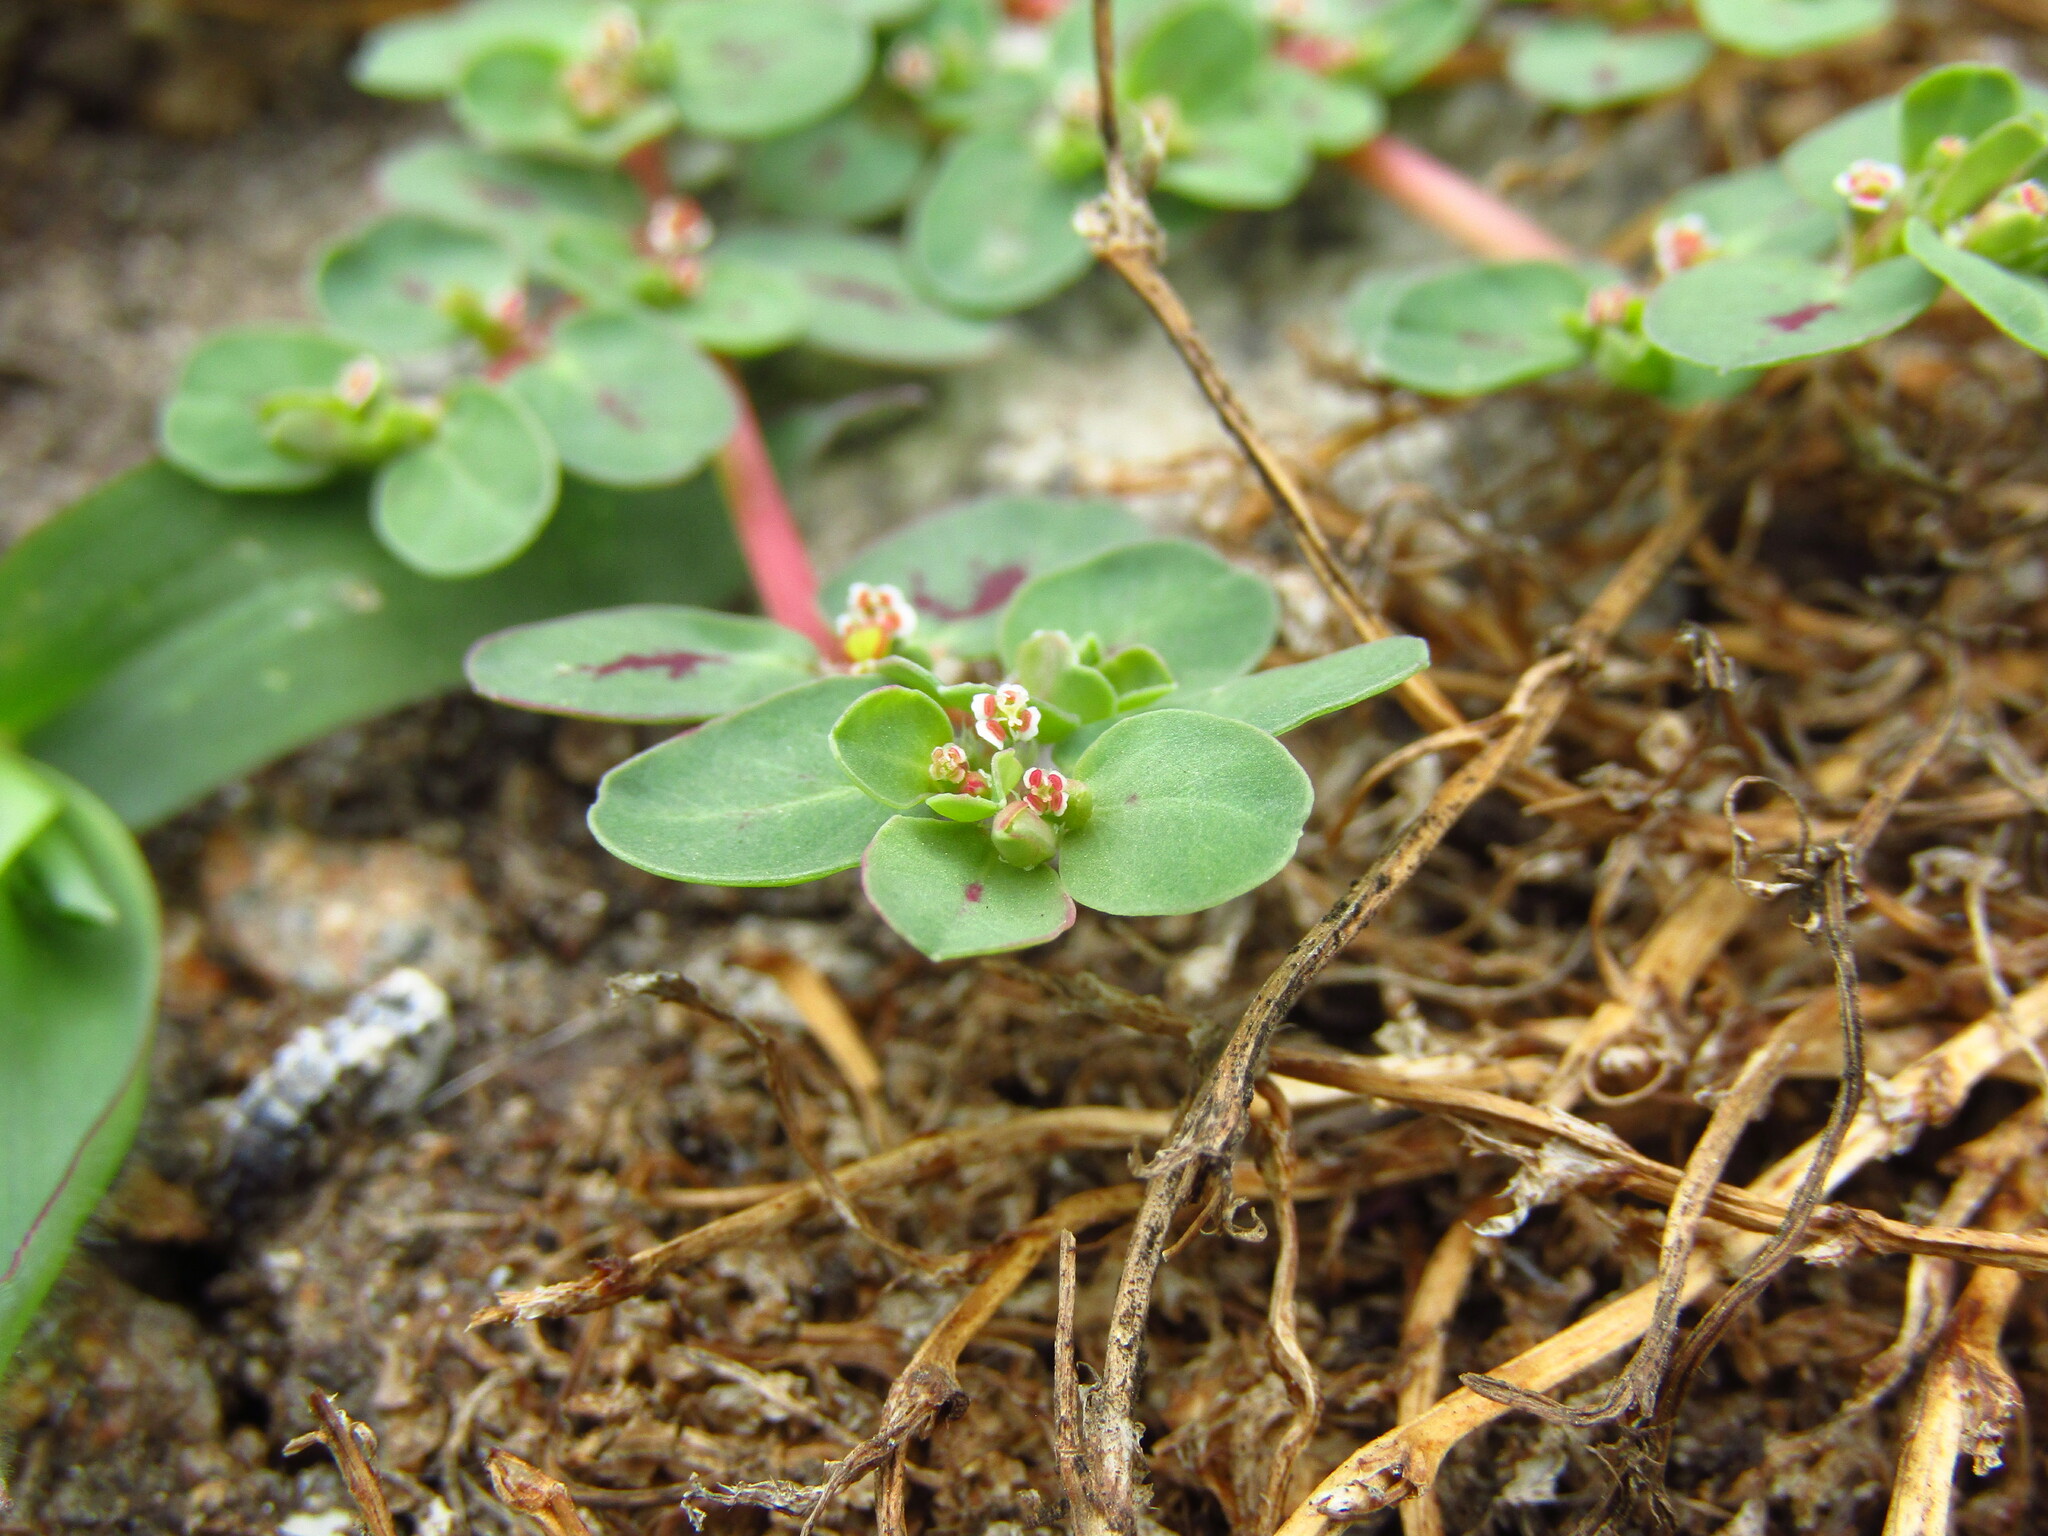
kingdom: Plantae
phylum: Tracheophyta
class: Magnoliopsida
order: Malpighiales
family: Euphorbiaceae
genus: Euphorbia
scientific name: Euphorbia klotzschii
